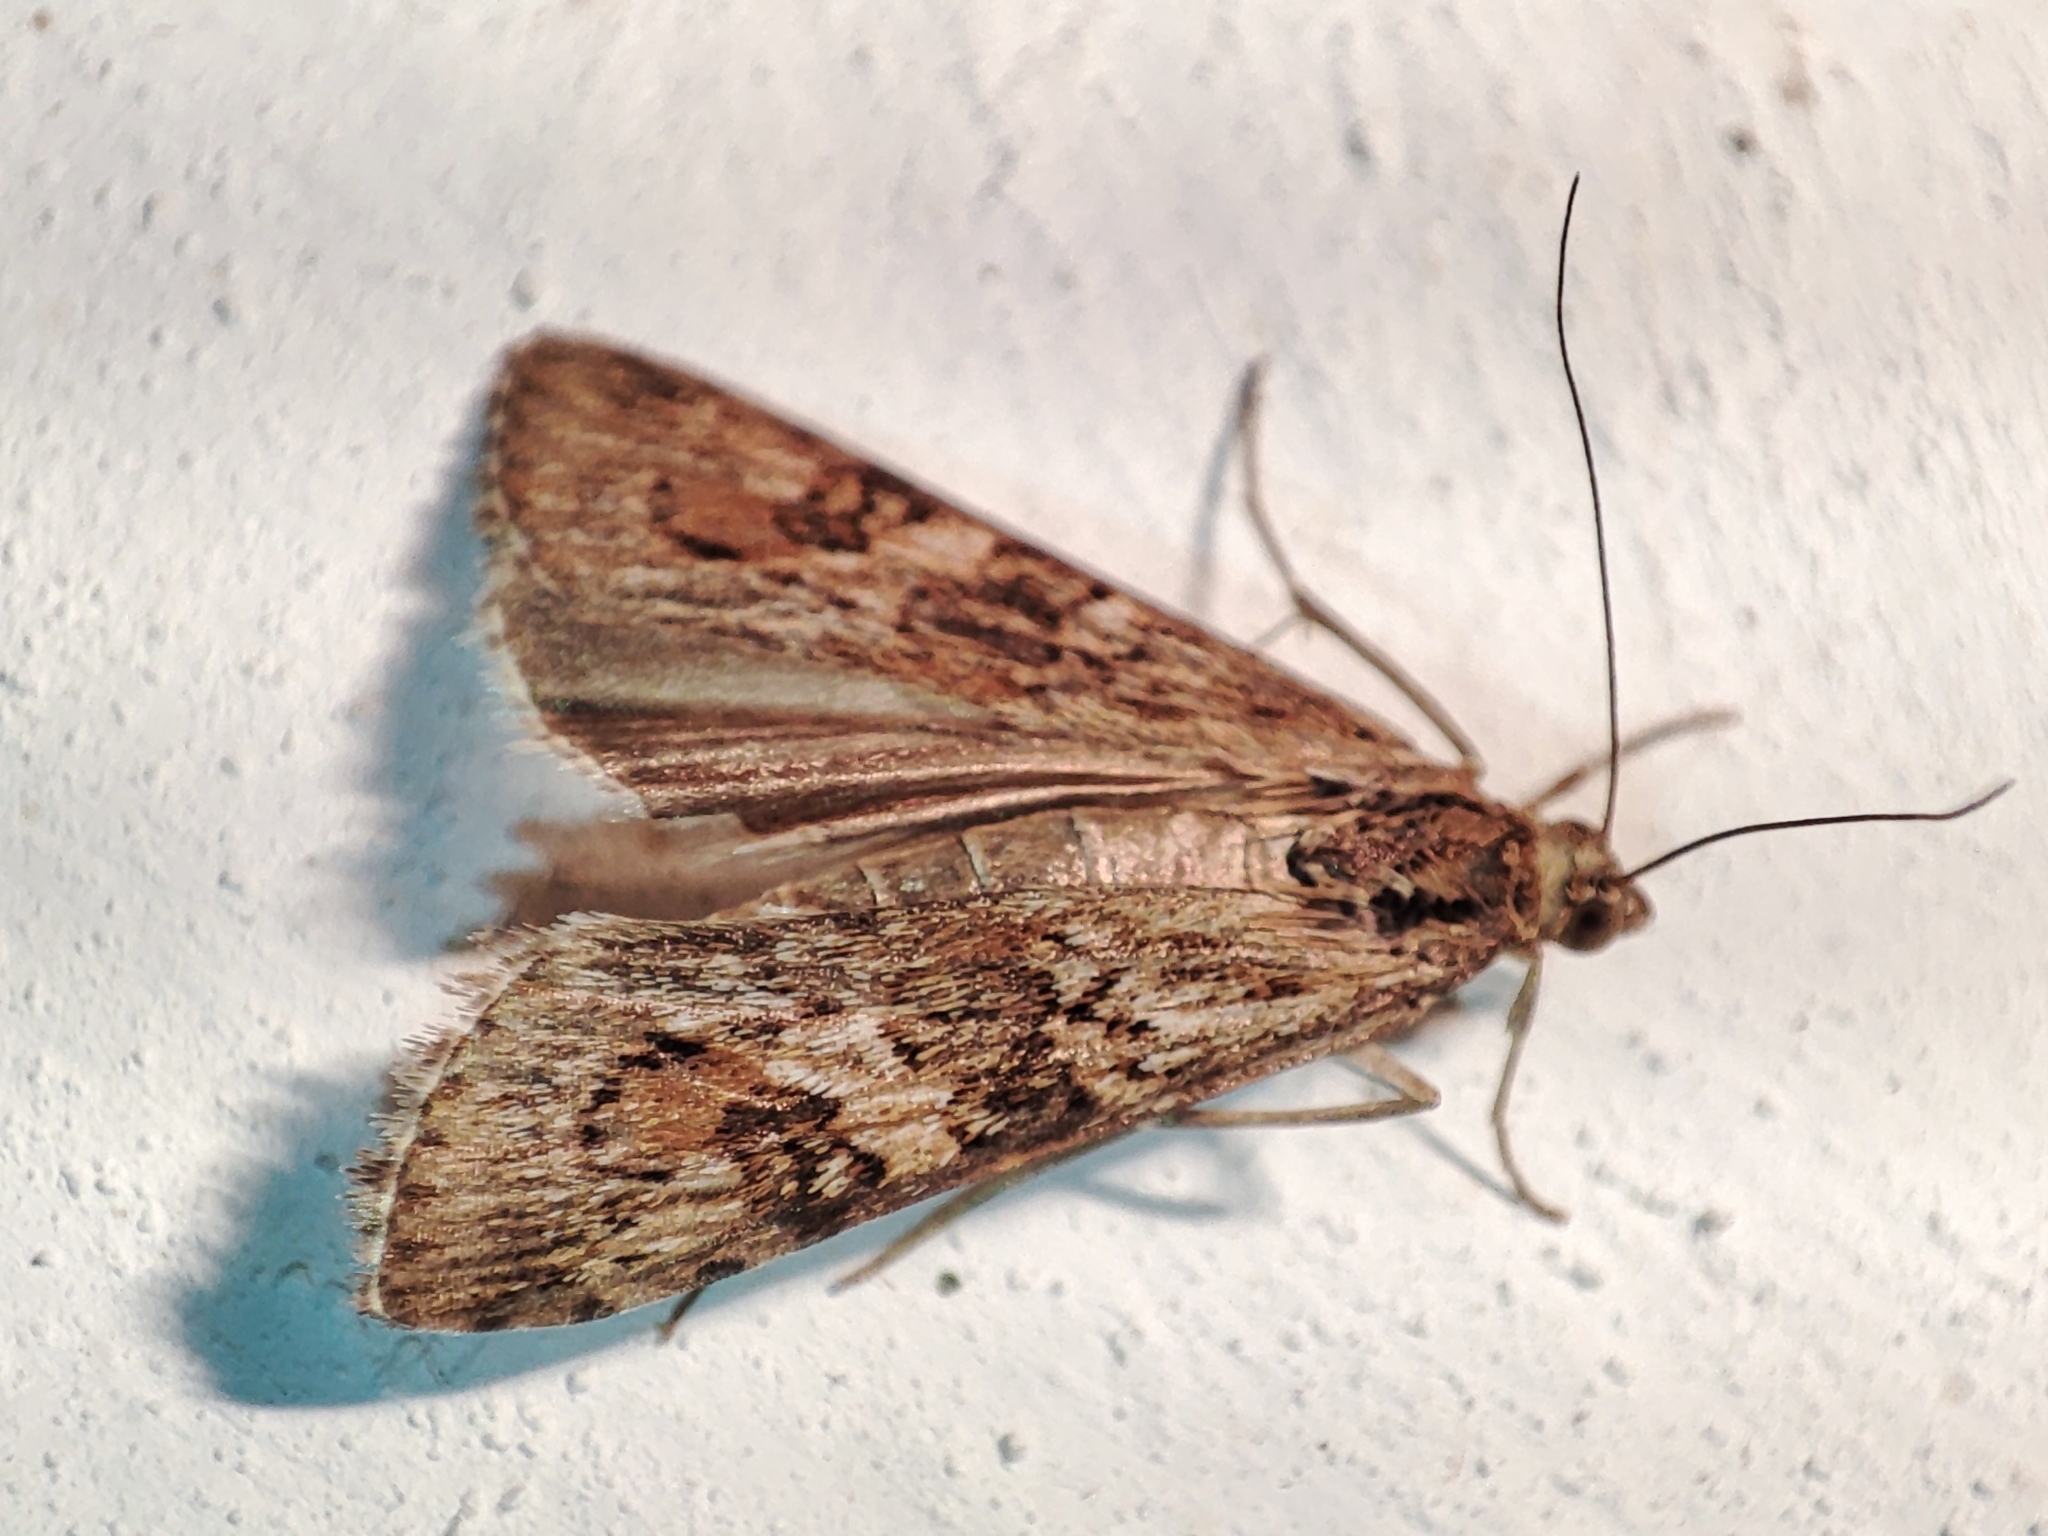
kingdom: Animalia
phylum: Arthropoda
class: Insecta
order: Lepidoptera
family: Crambidae
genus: Nomophila
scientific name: Nomophila noctuella
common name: Rush veneer
